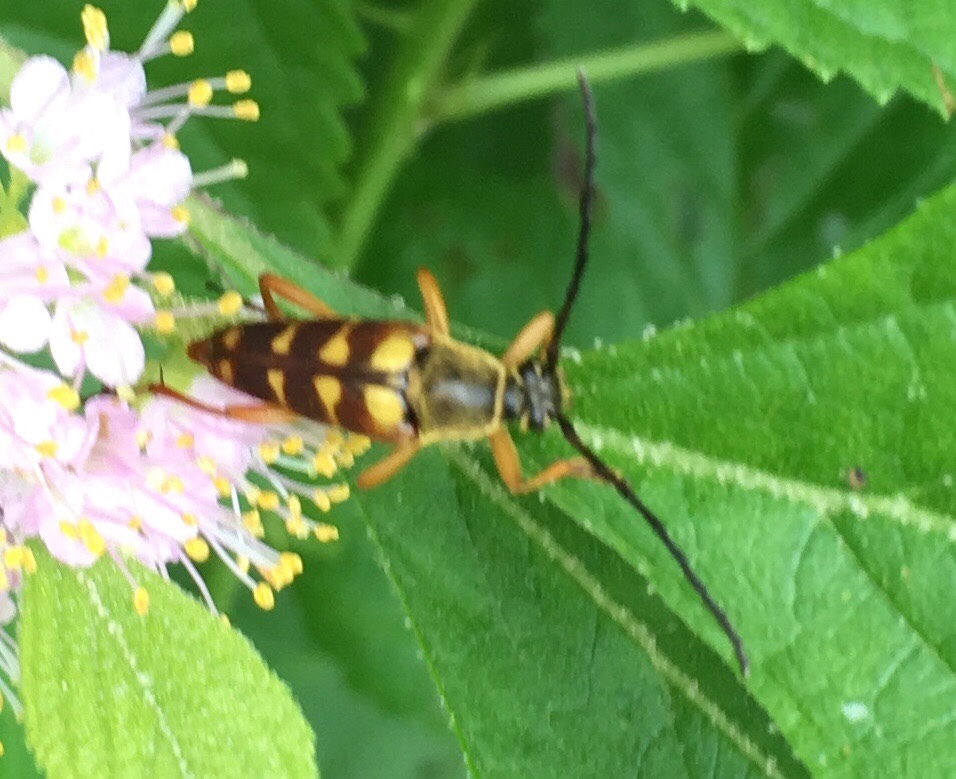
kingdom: Animalia
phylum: Arthropoda
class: Insecta
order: Coleoptera
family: Cerambycidae
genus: Typocerus
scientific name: Typocerus velutinus
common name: Banded longhorn beetle
